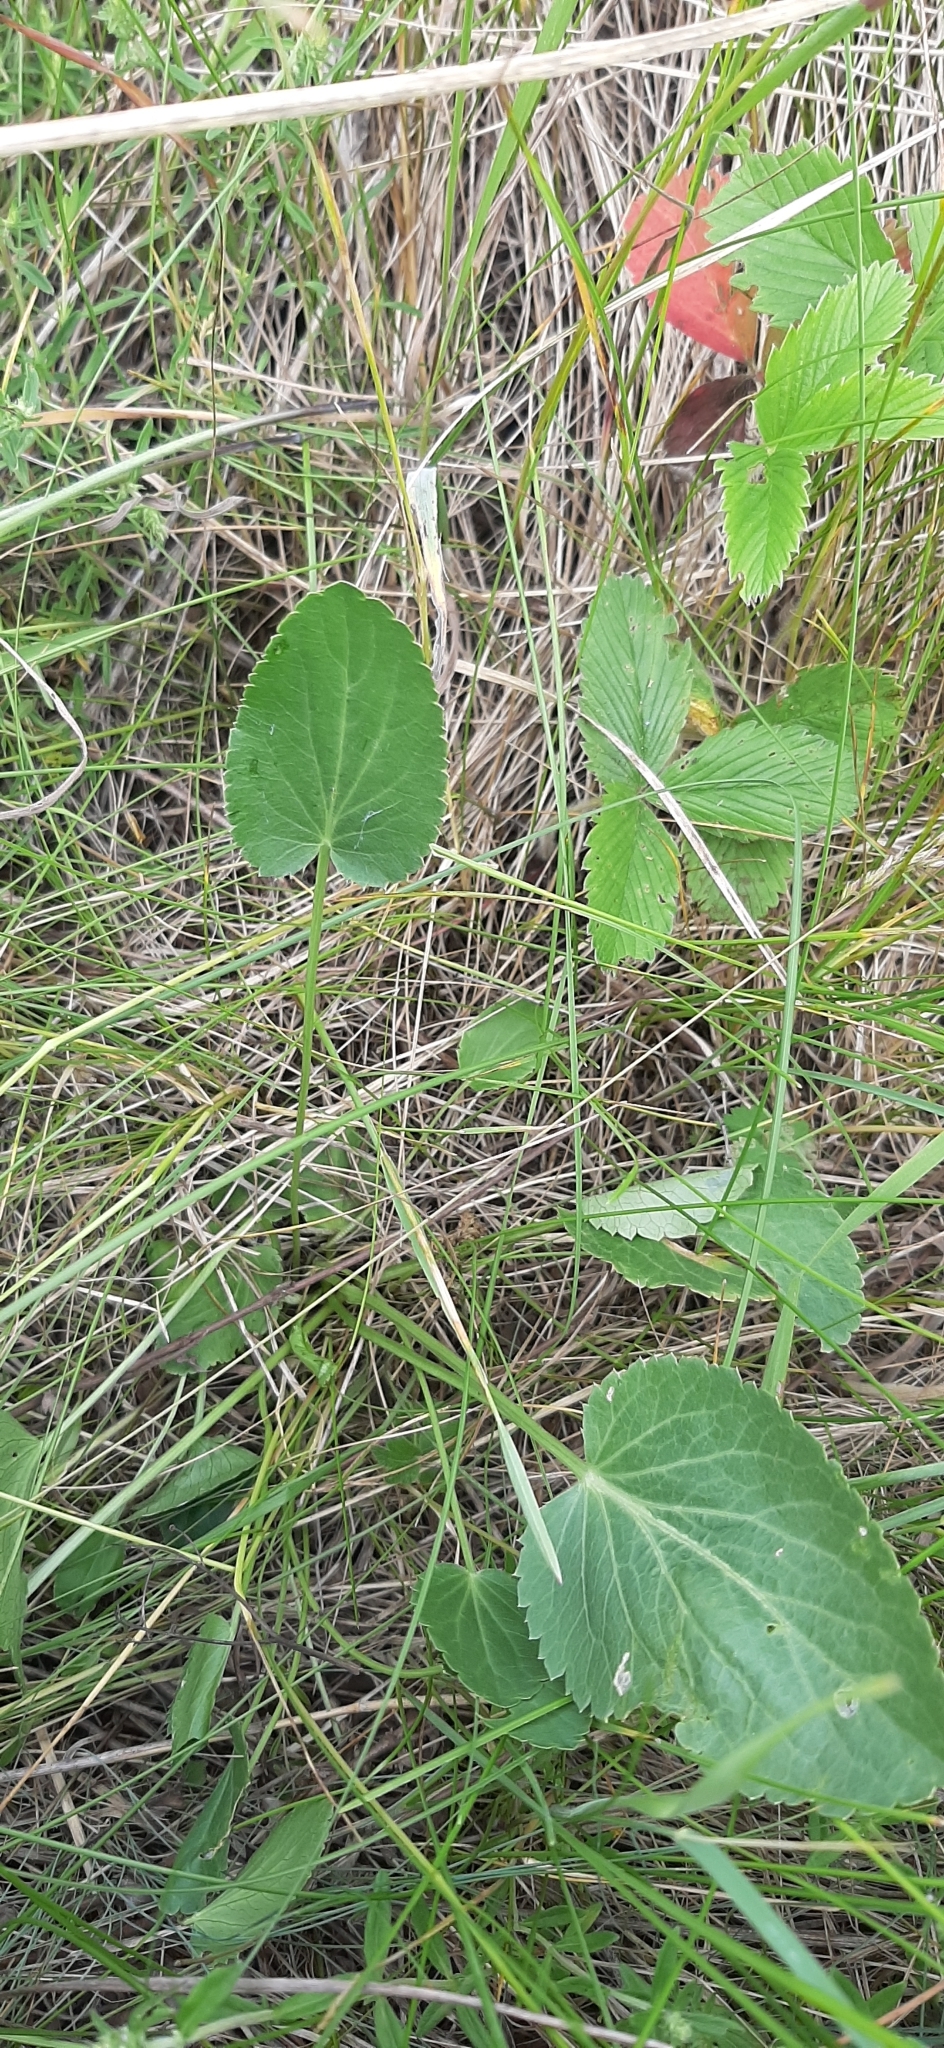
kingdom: Plantae
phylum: Tracheophyta
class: Magnoliopsida
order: Apiales
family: Apiaceae
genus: Eryngium
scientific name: Eryngium planum
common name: Blue eryngo
